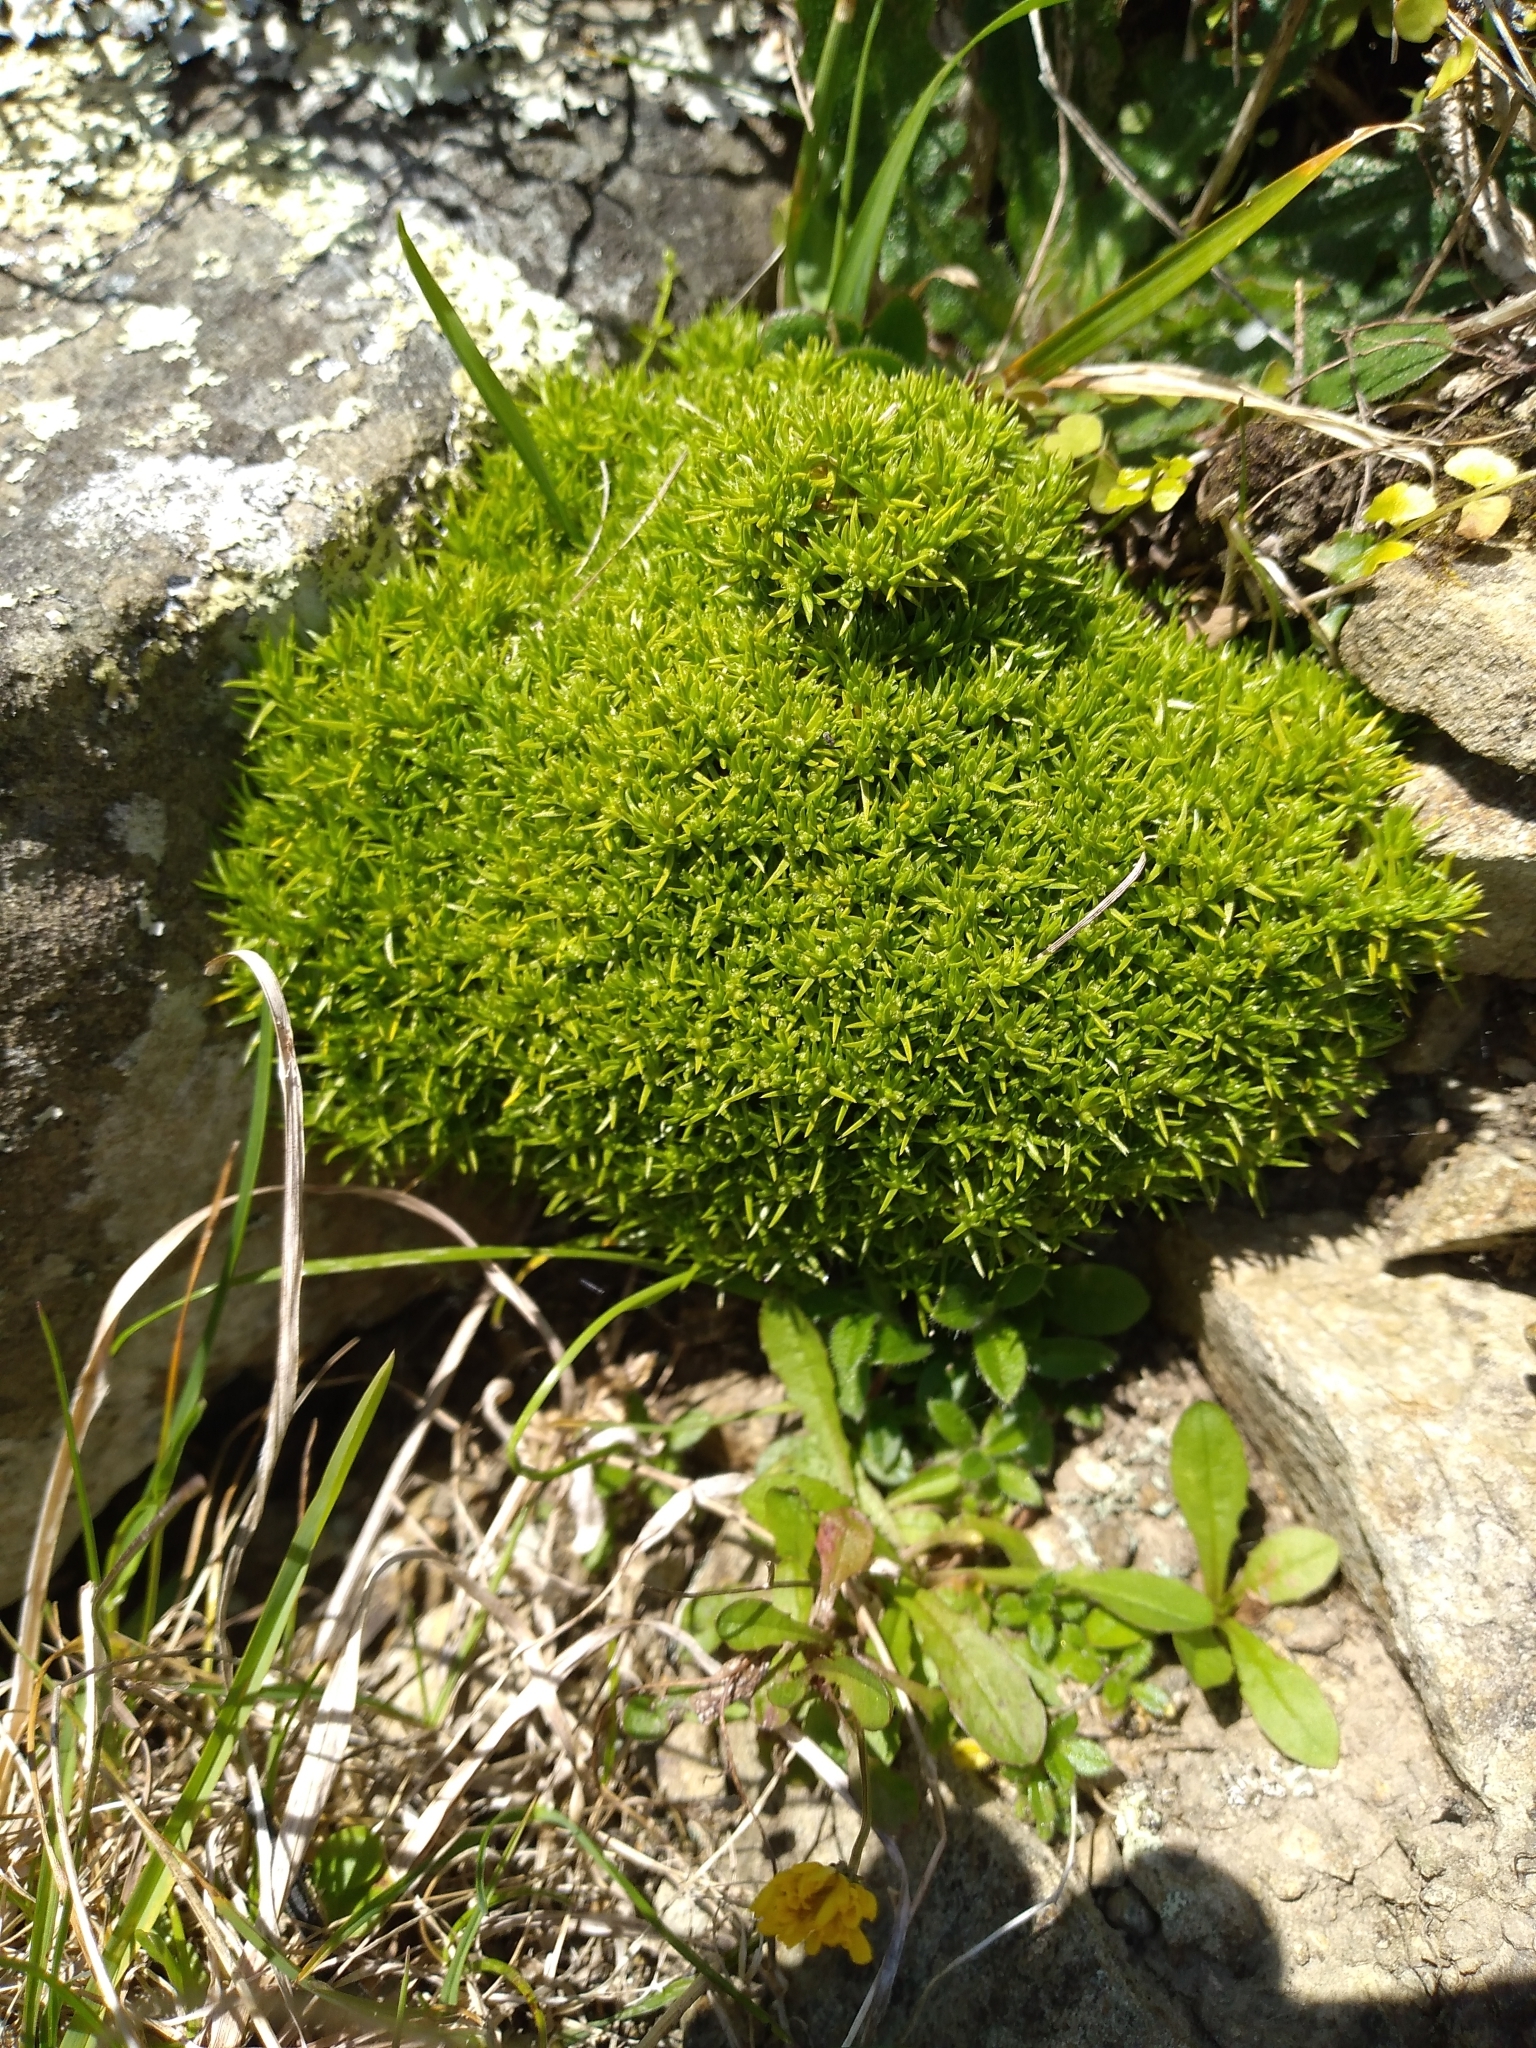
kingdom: Plantae
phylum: Tracheophyta
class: Magnoliopsida
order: Caryophyllales
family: Caryophyllaceae
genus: Scleranthus
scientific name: Scleranthus biflorus
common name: Two-flower knawel
